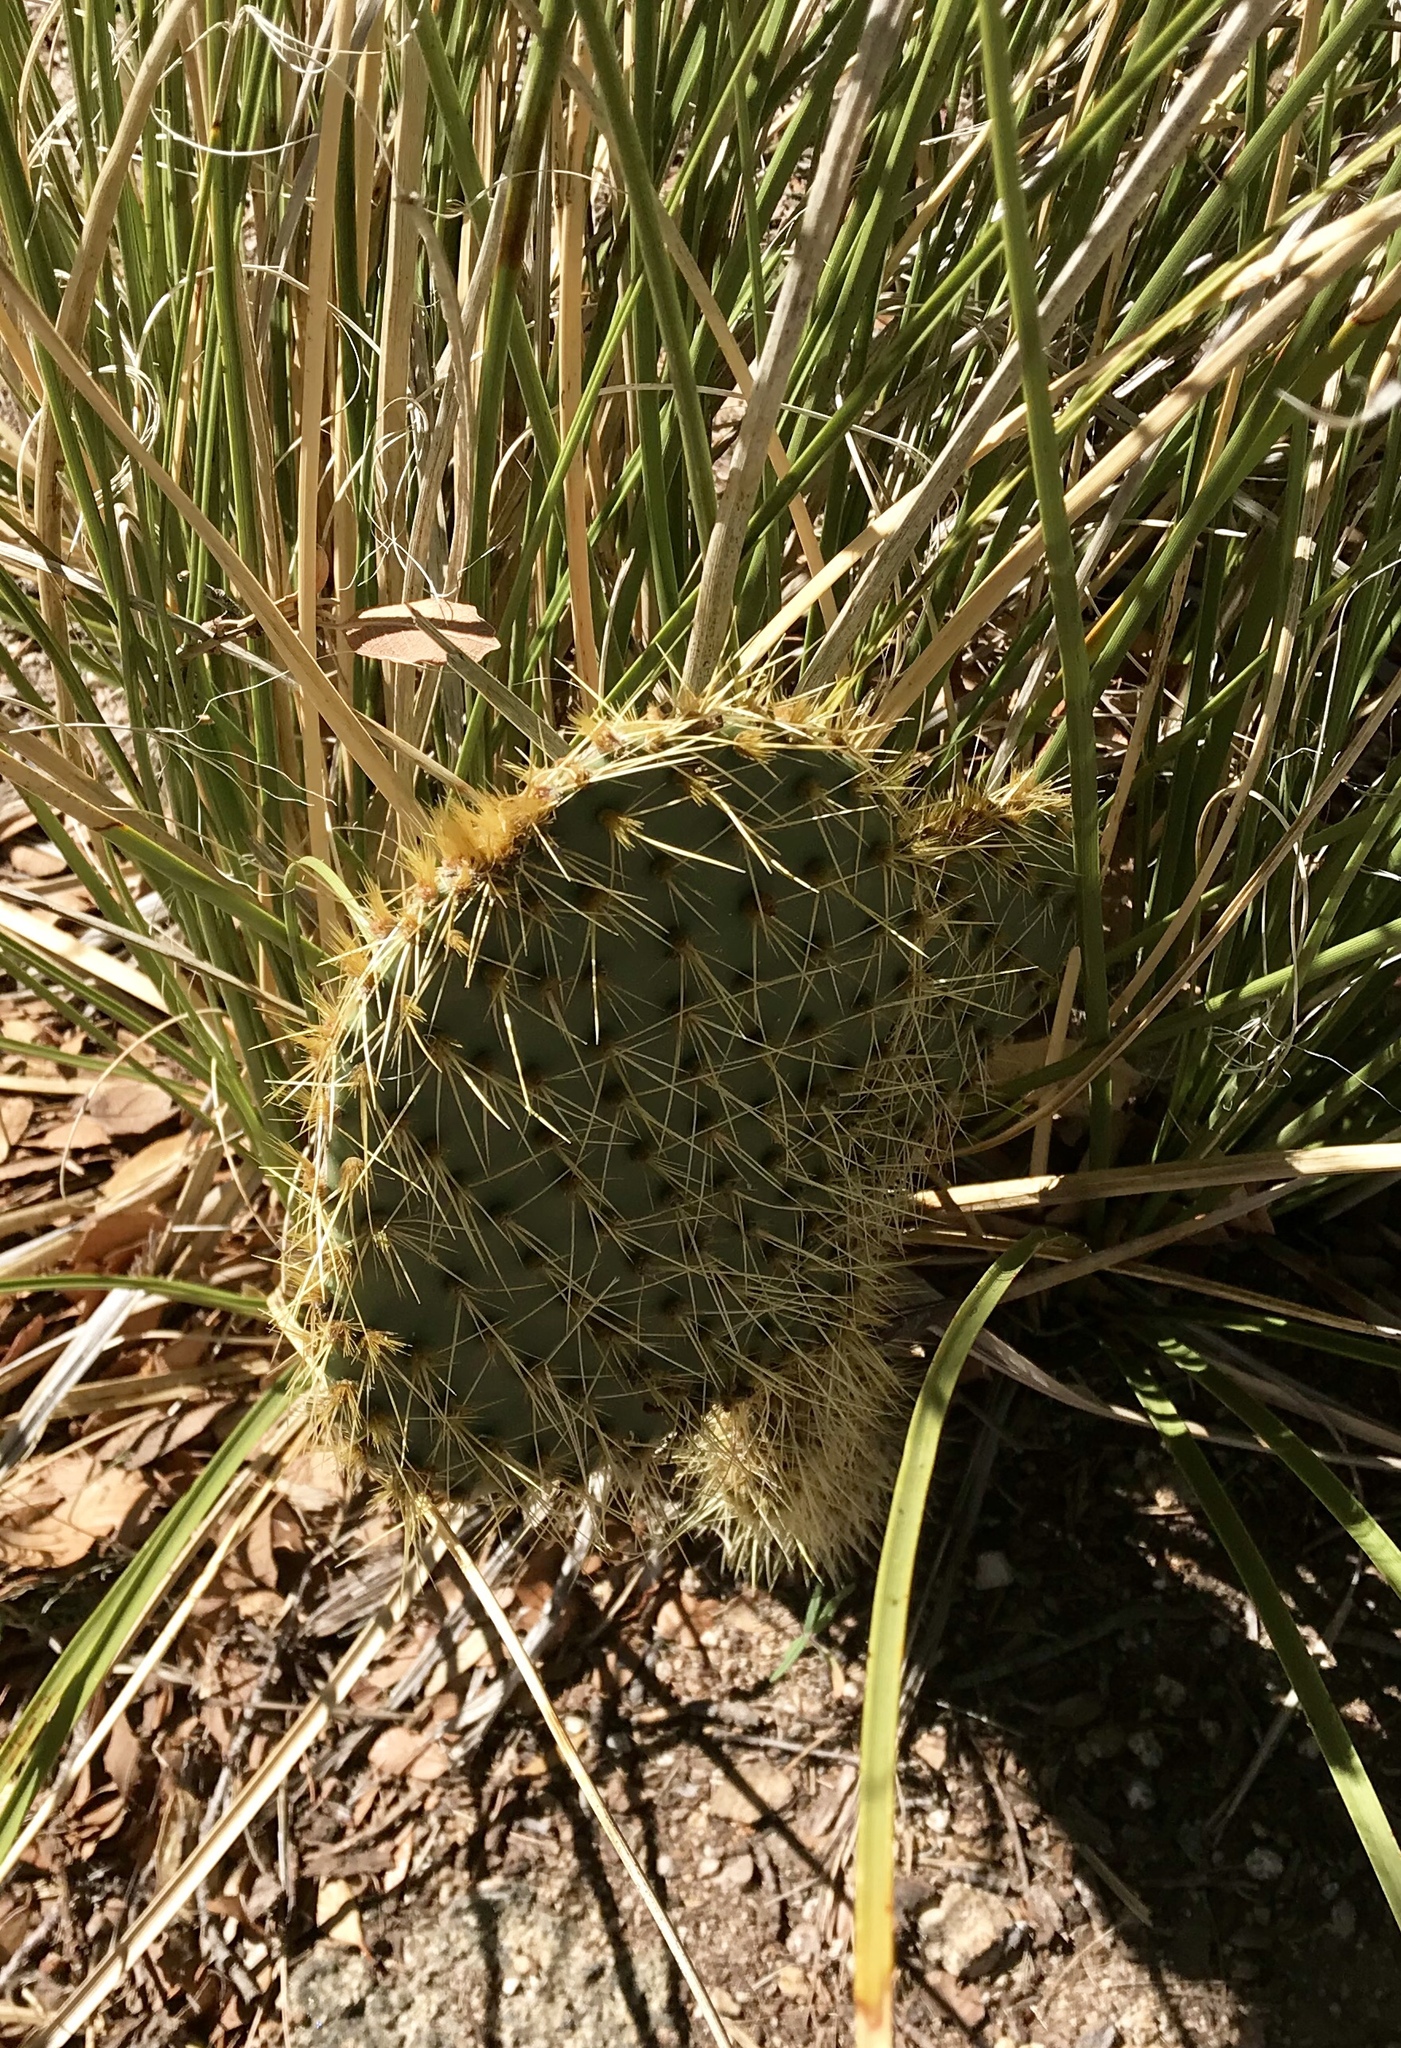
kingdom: Plantae
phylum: Tracheophyta
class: Magnoliopsida
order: Caryophyllales
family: Cactaceae
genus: Opuntia
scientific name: Opuntia chlorotica
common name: Dollar-joint prickly-pear
